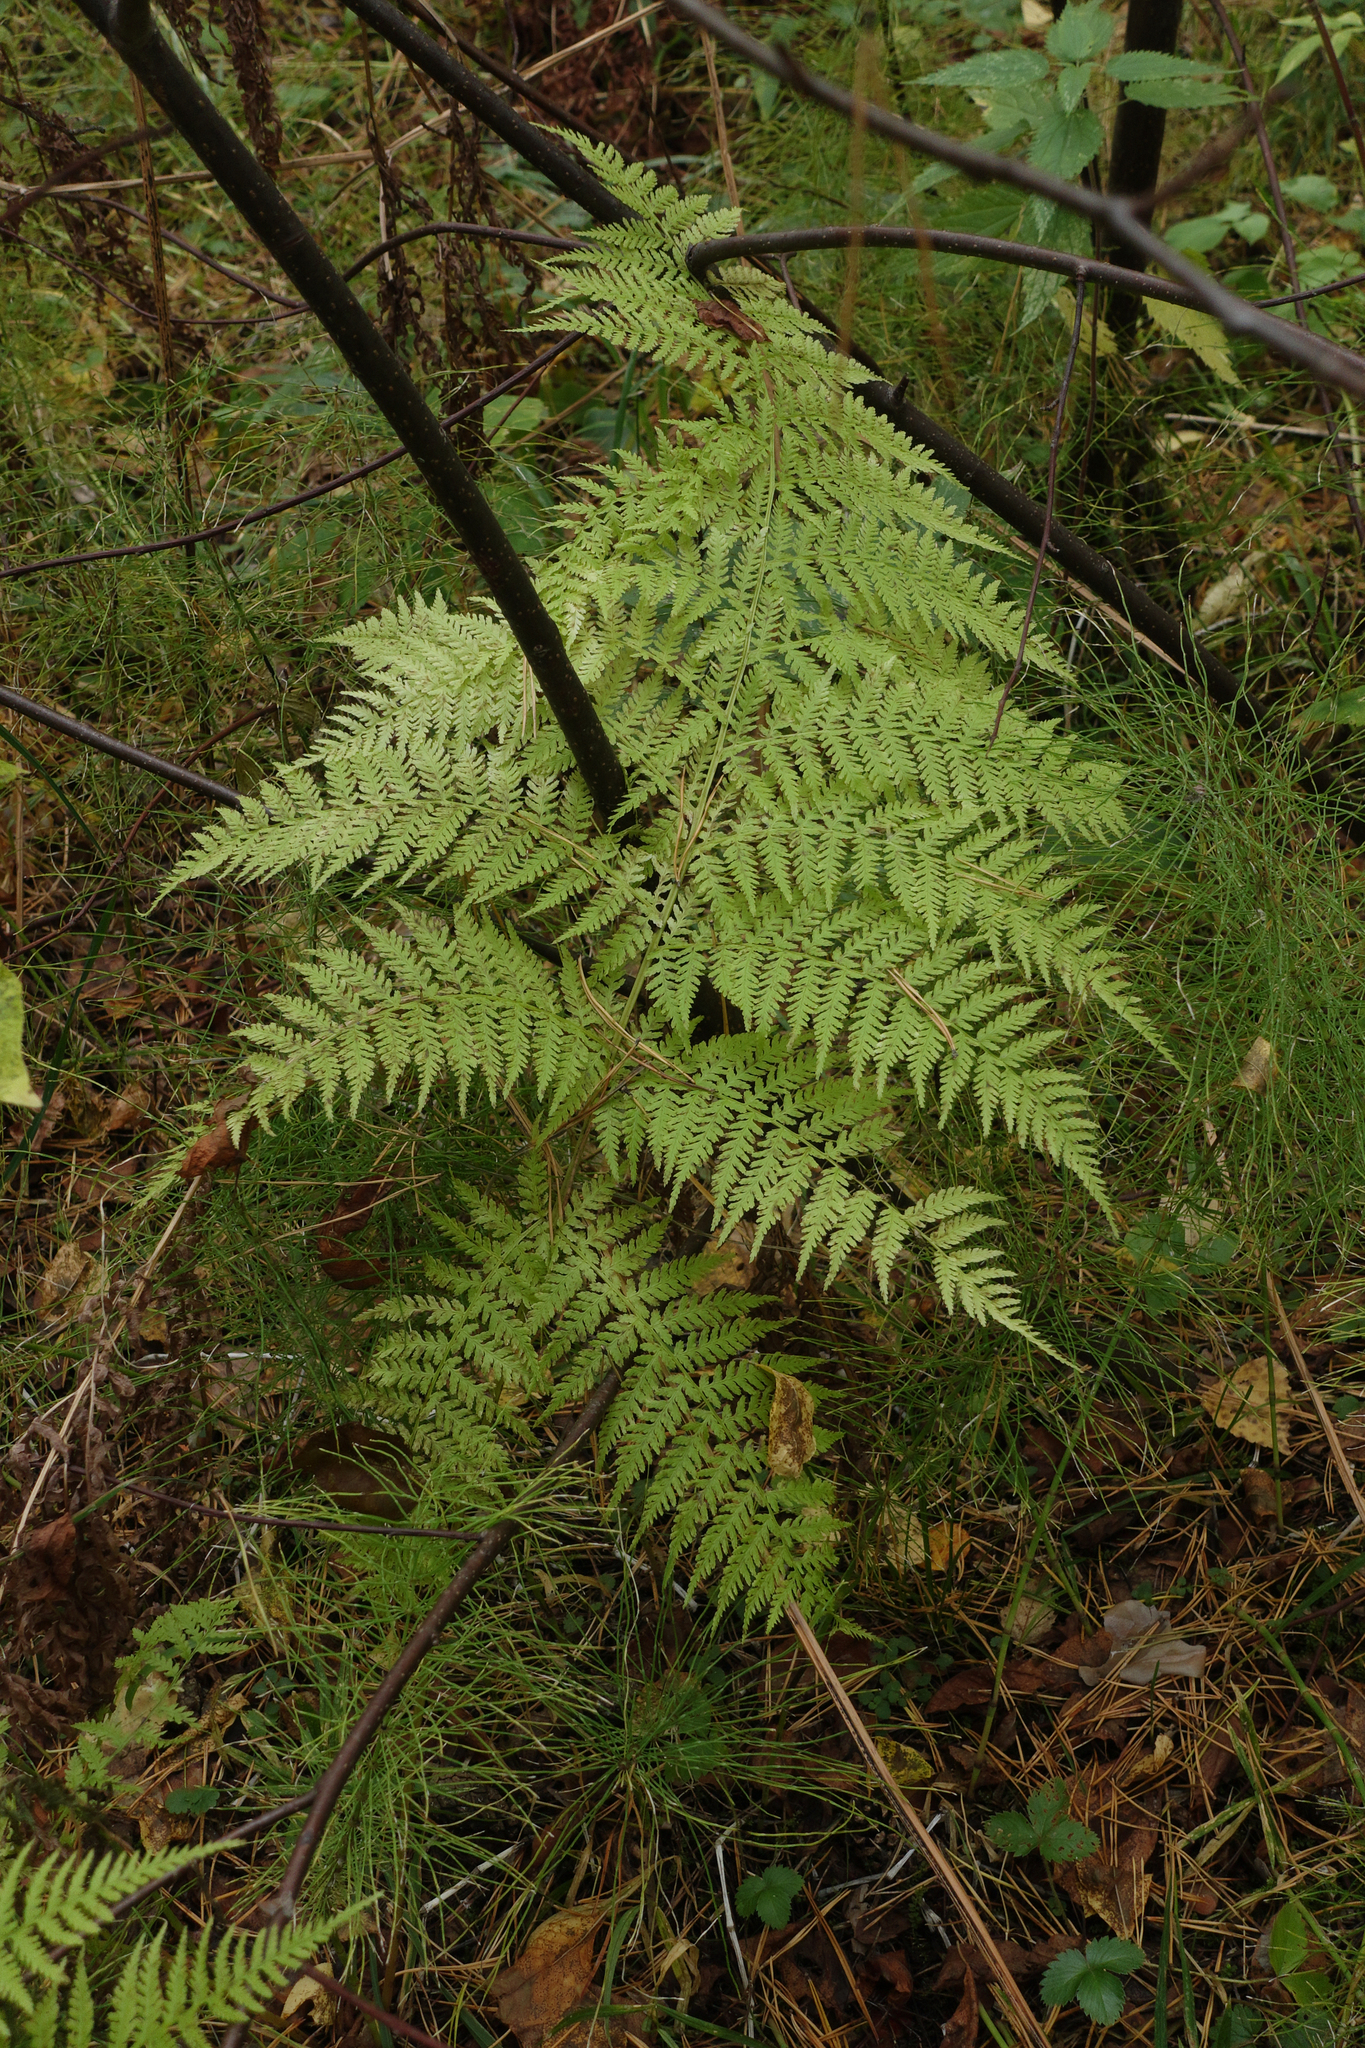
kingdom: Plantae
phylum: Tracheophyta
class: Polypodiopsida
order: Polypodiales
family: Athyriaceae
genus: Athyrium
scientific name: Athyrium filix-femina
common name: Lady fern
